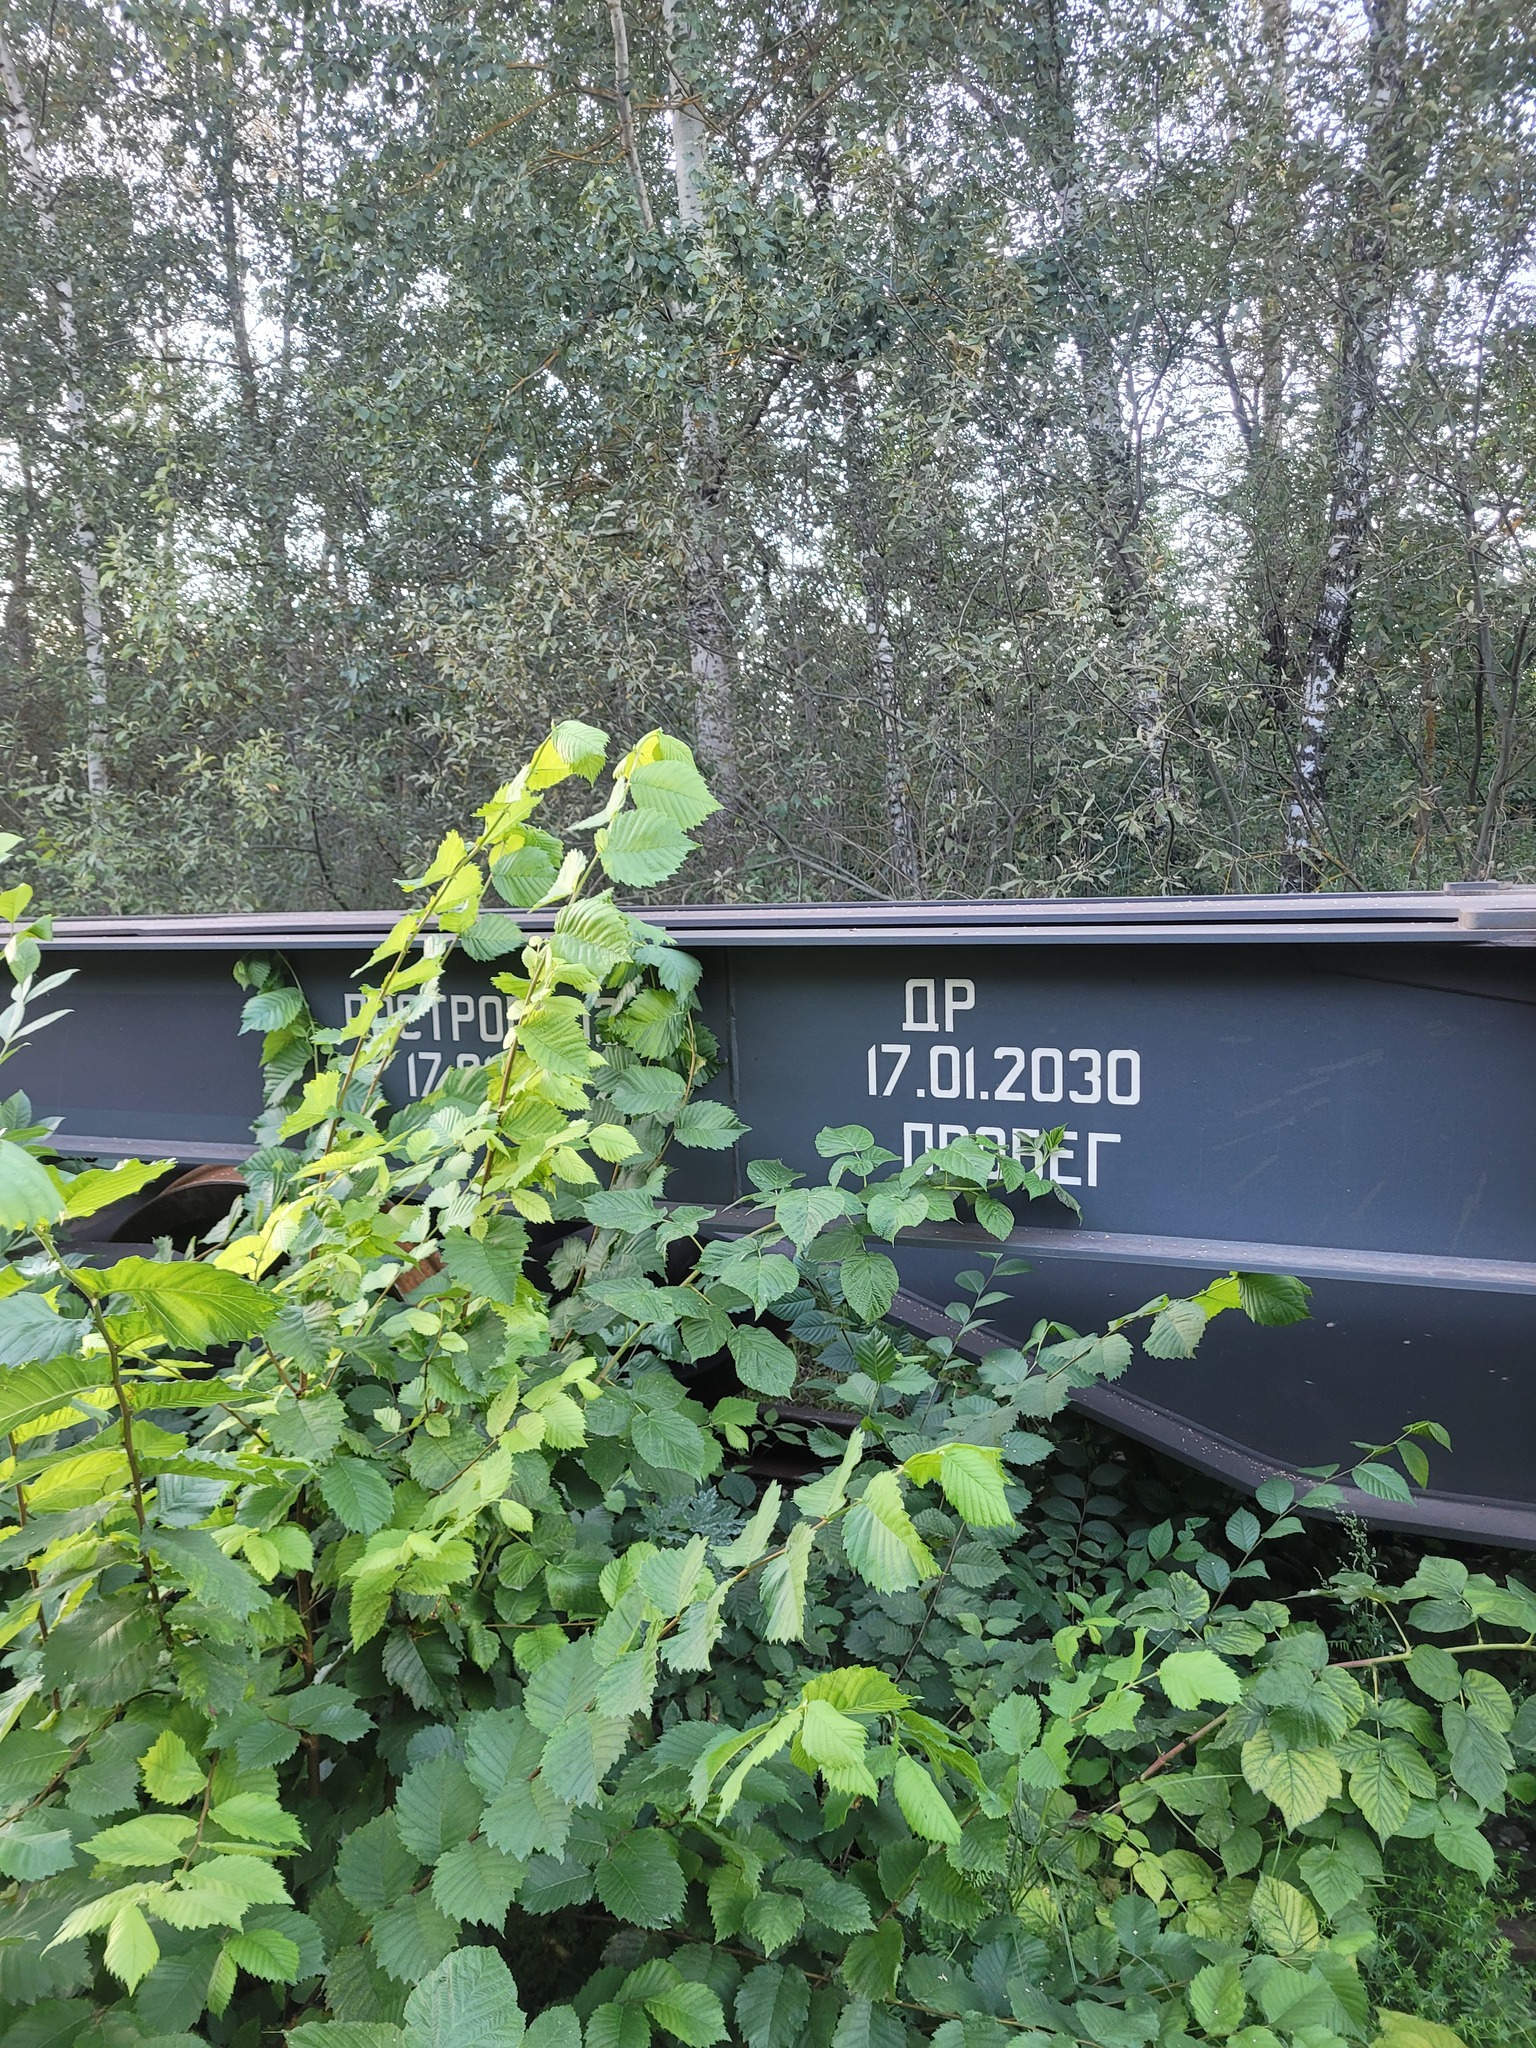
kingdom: Plantae
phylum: Tracheophyta
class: Magnoliopsida
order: Rosales
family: Ulmaceae
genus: Ulmus
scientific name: Ulmus laevis
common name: European white-elm
